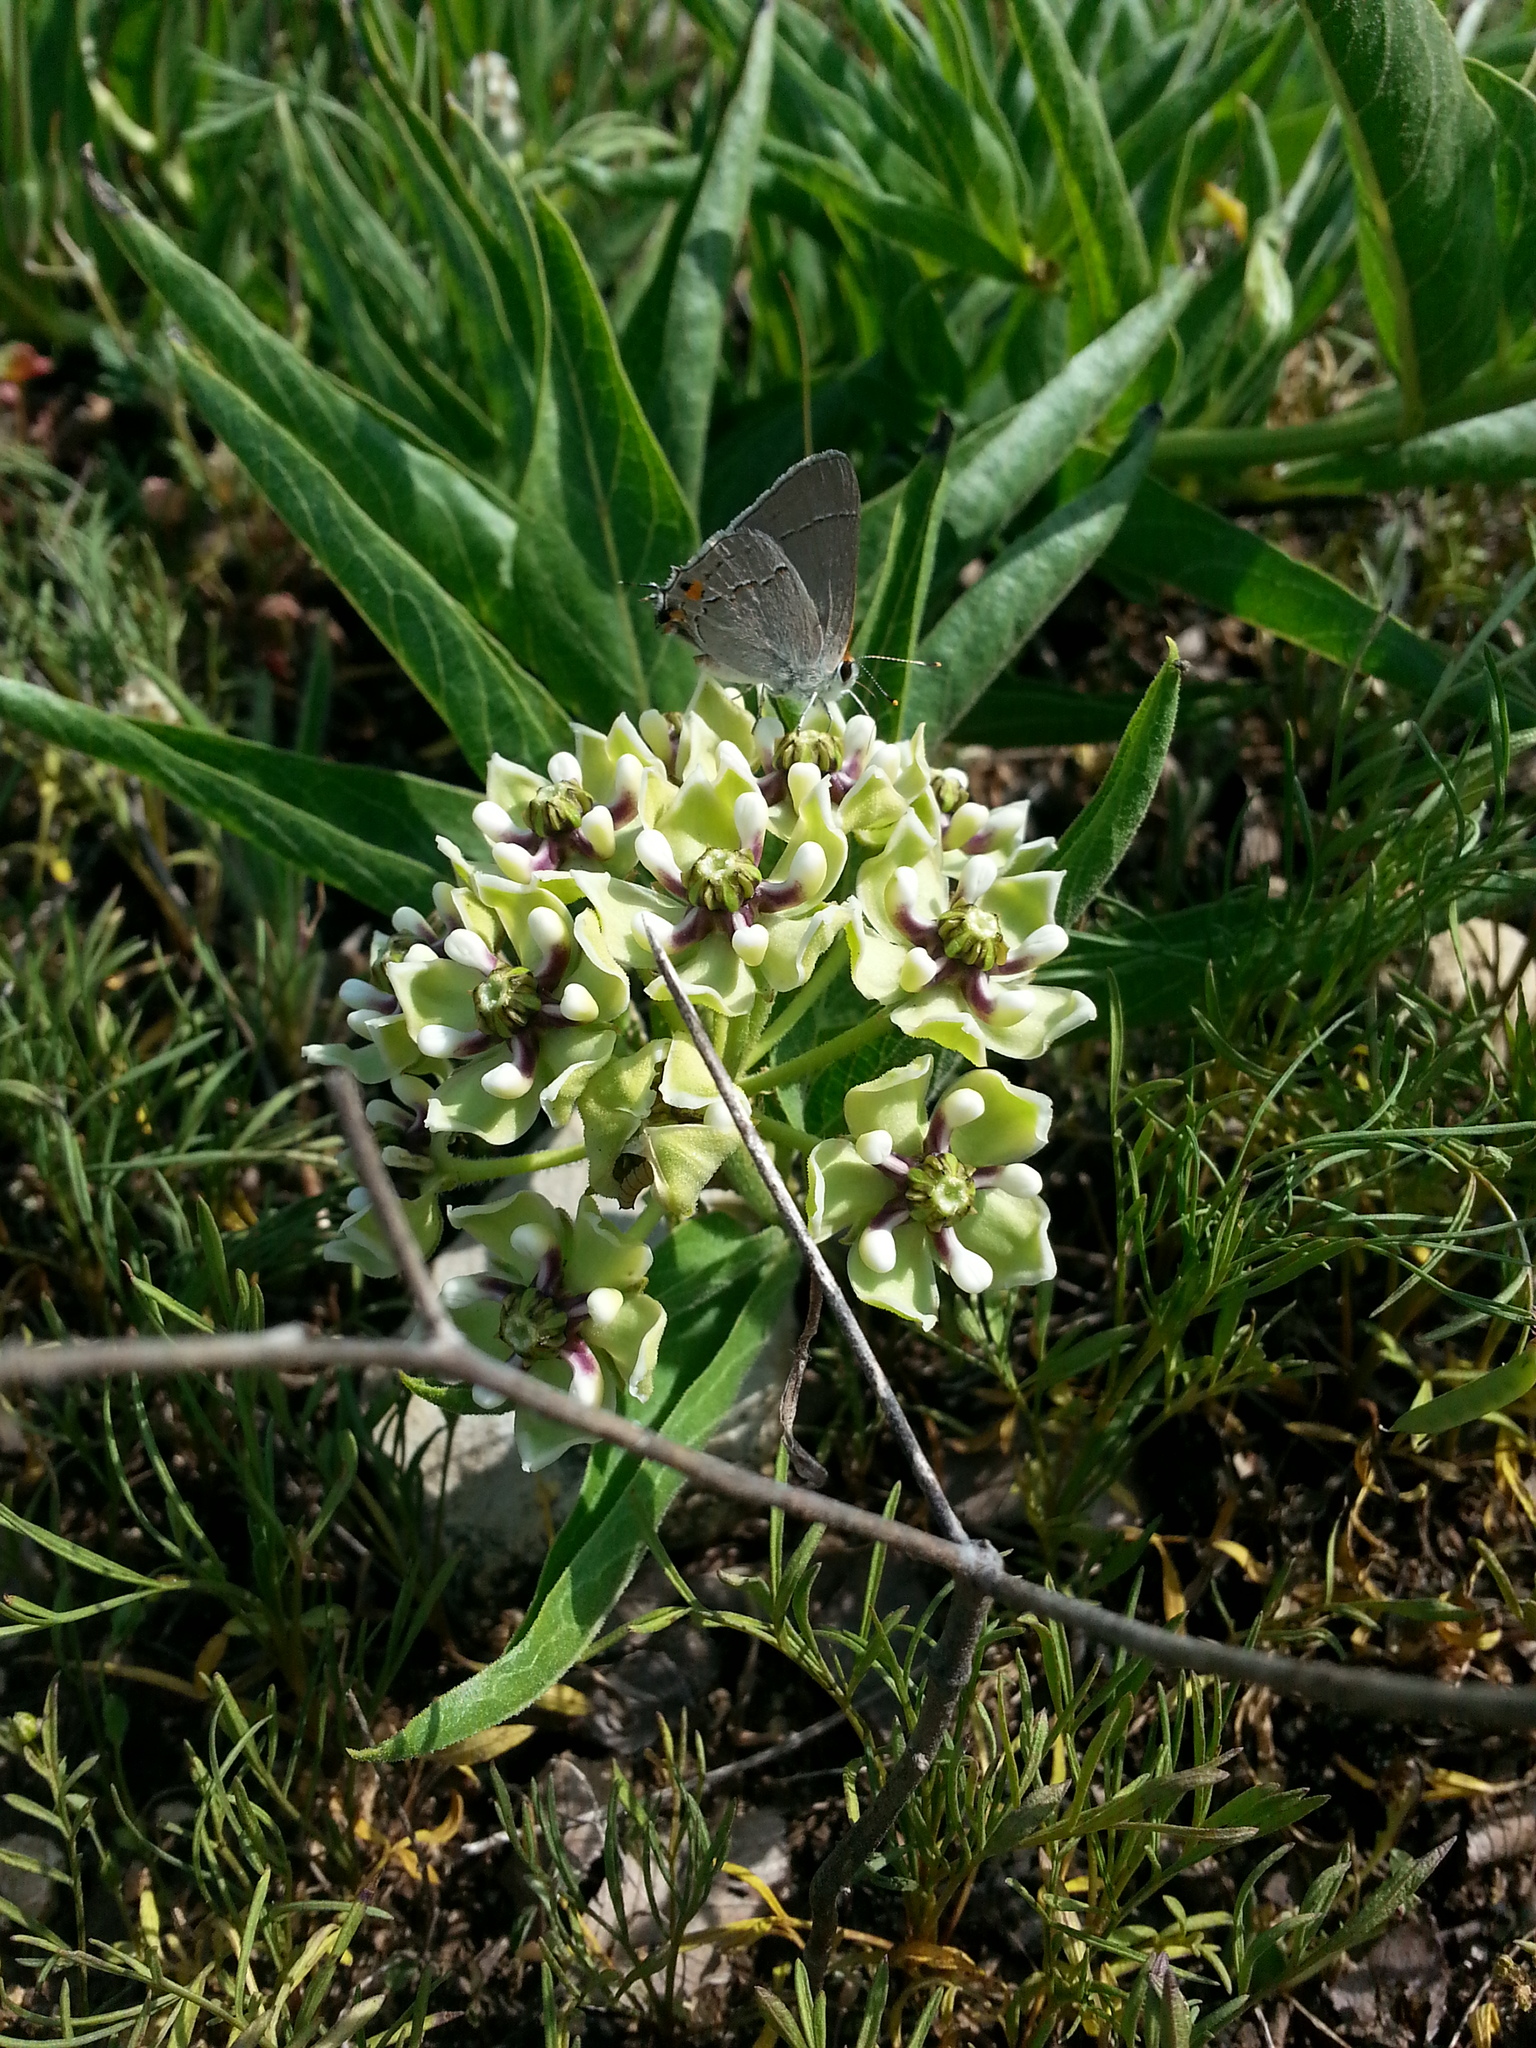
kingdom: Animalia
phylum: Arthropoda
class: Insecta
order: Lepidoptera
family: Lycaenidae
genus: Strymon
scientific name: Strymon melinus
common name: Gray hairstreak
